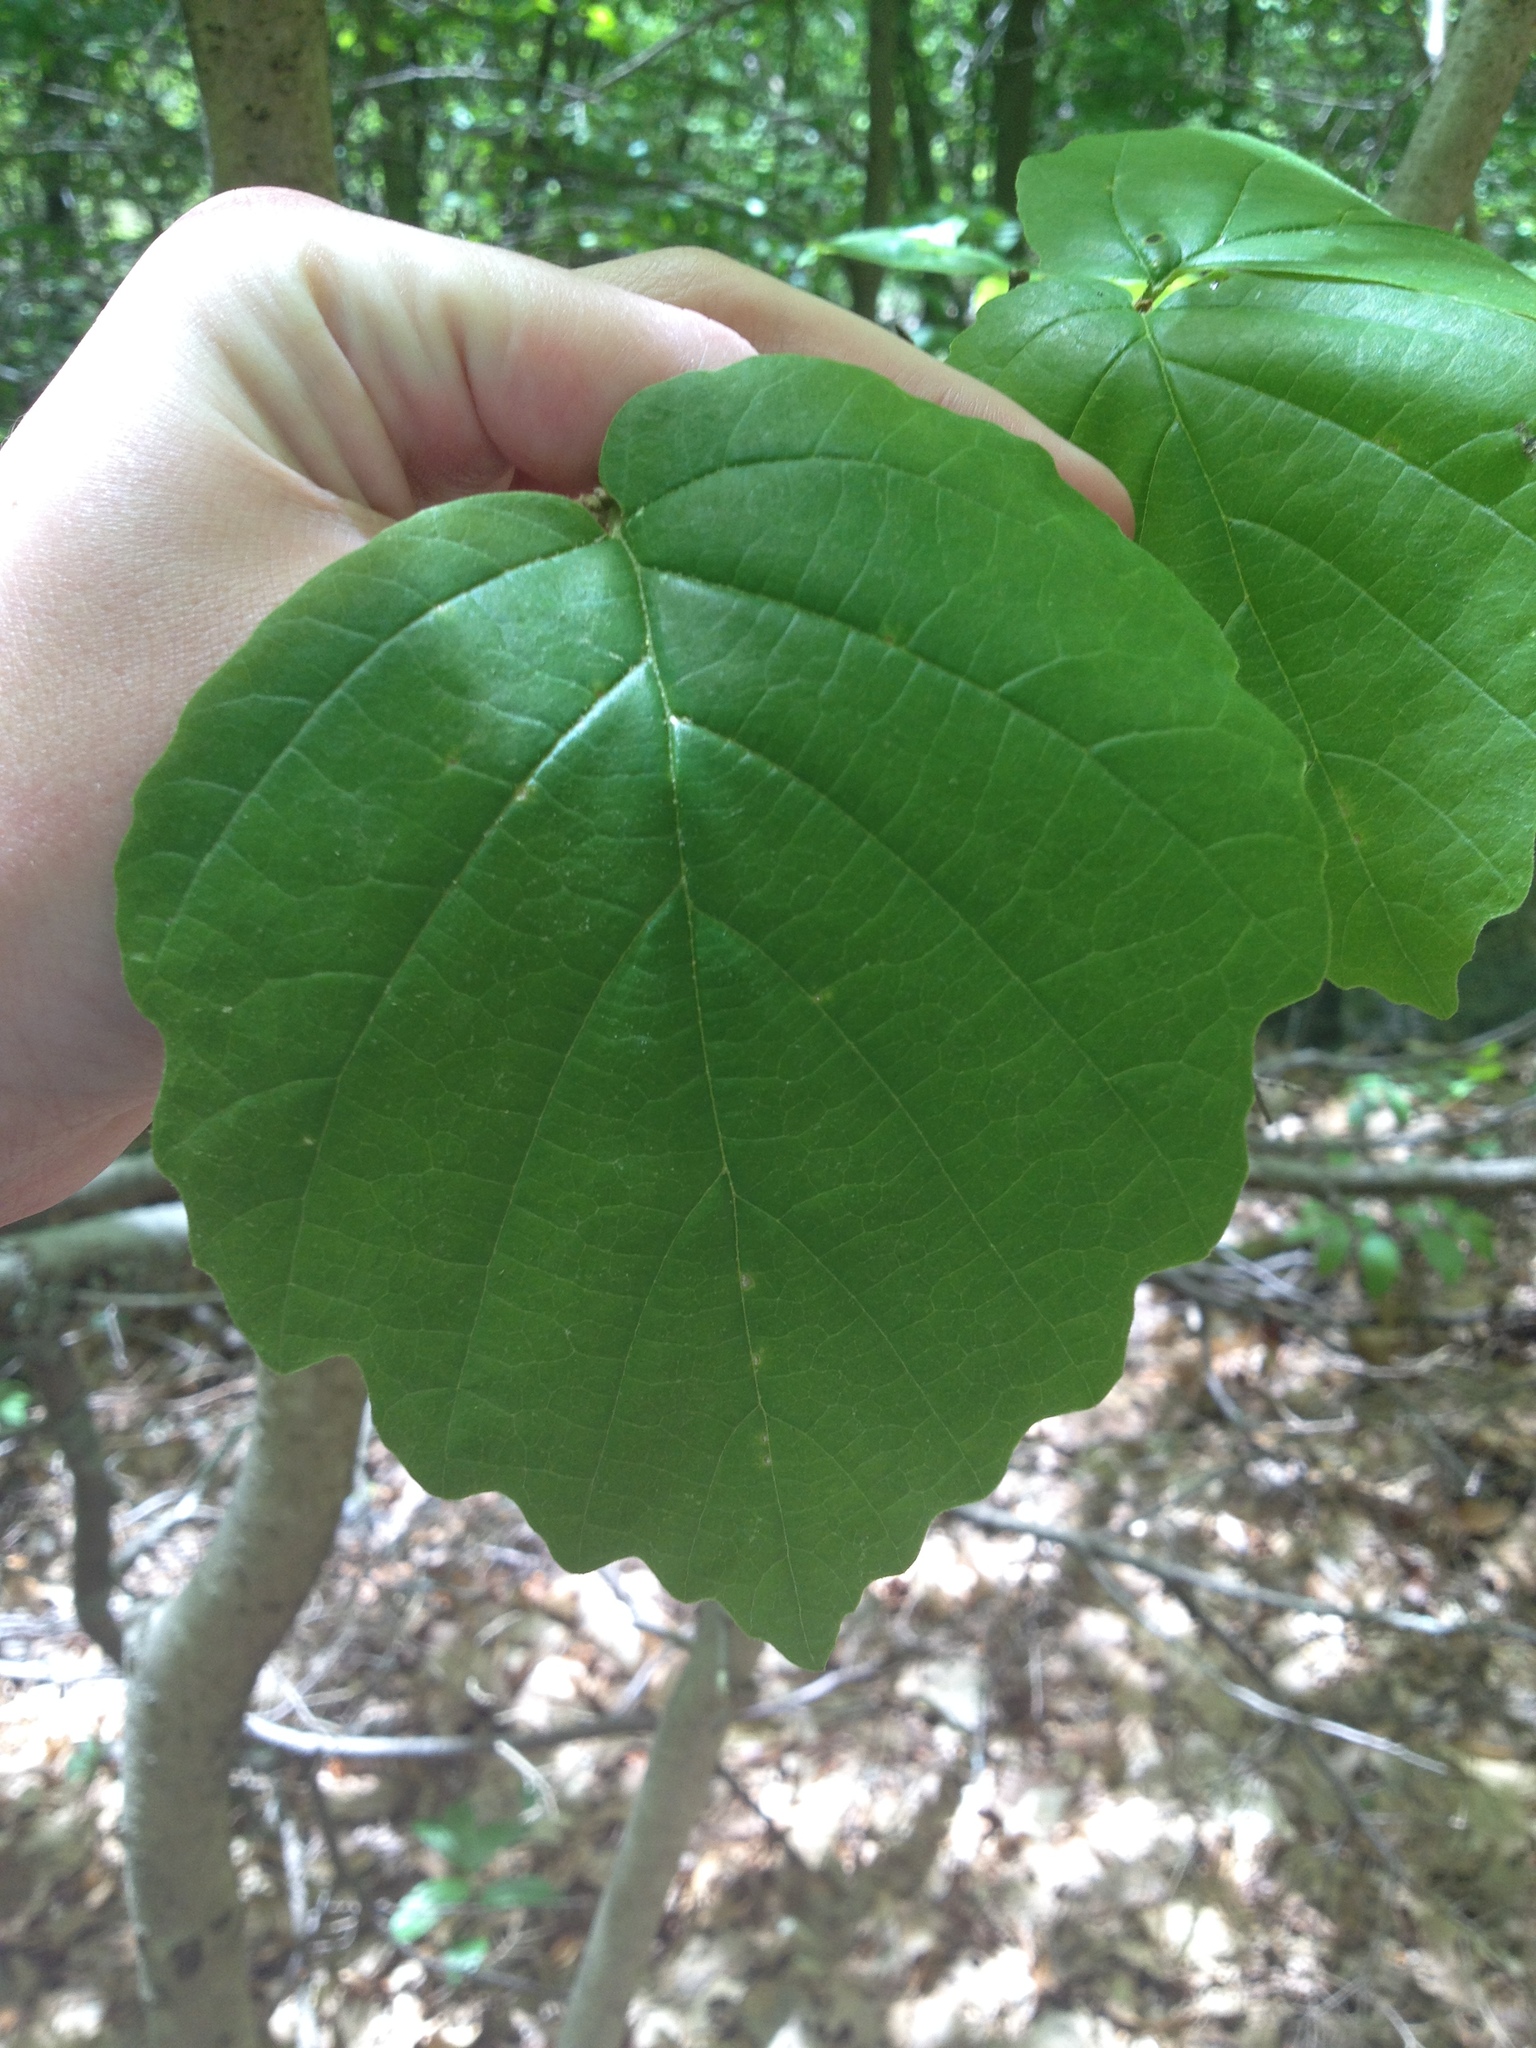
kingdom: Plantae
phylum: Tracheophyta
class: Magnoliopsida
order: Saxifragales
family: Hamamelidaceae
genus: Hamamelis
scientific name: Hamamelis virginiana
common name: Witch-hazel
